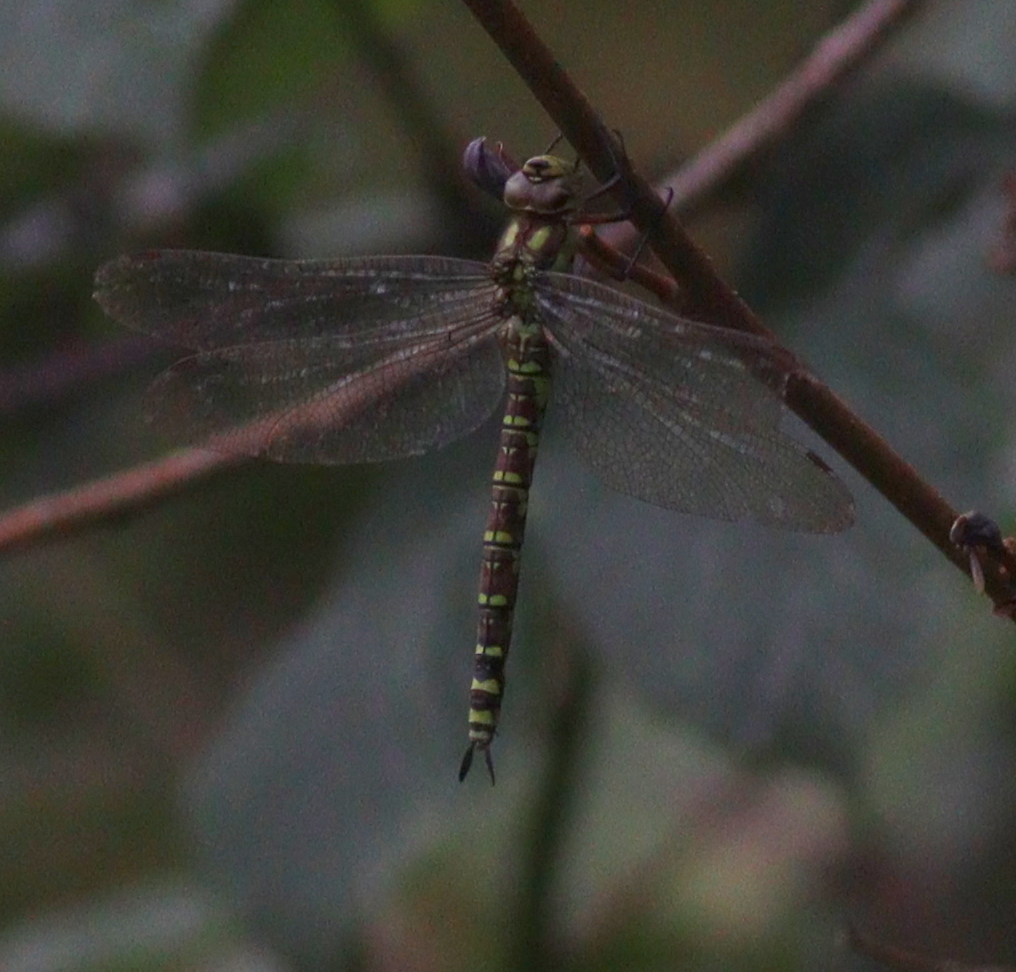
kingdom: Animalia
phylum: Arthropoda
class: Insecta
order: Odonata
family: Aeshnidae
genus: Aeshna
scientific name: Aeshna cyanea
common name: Southern hawker
